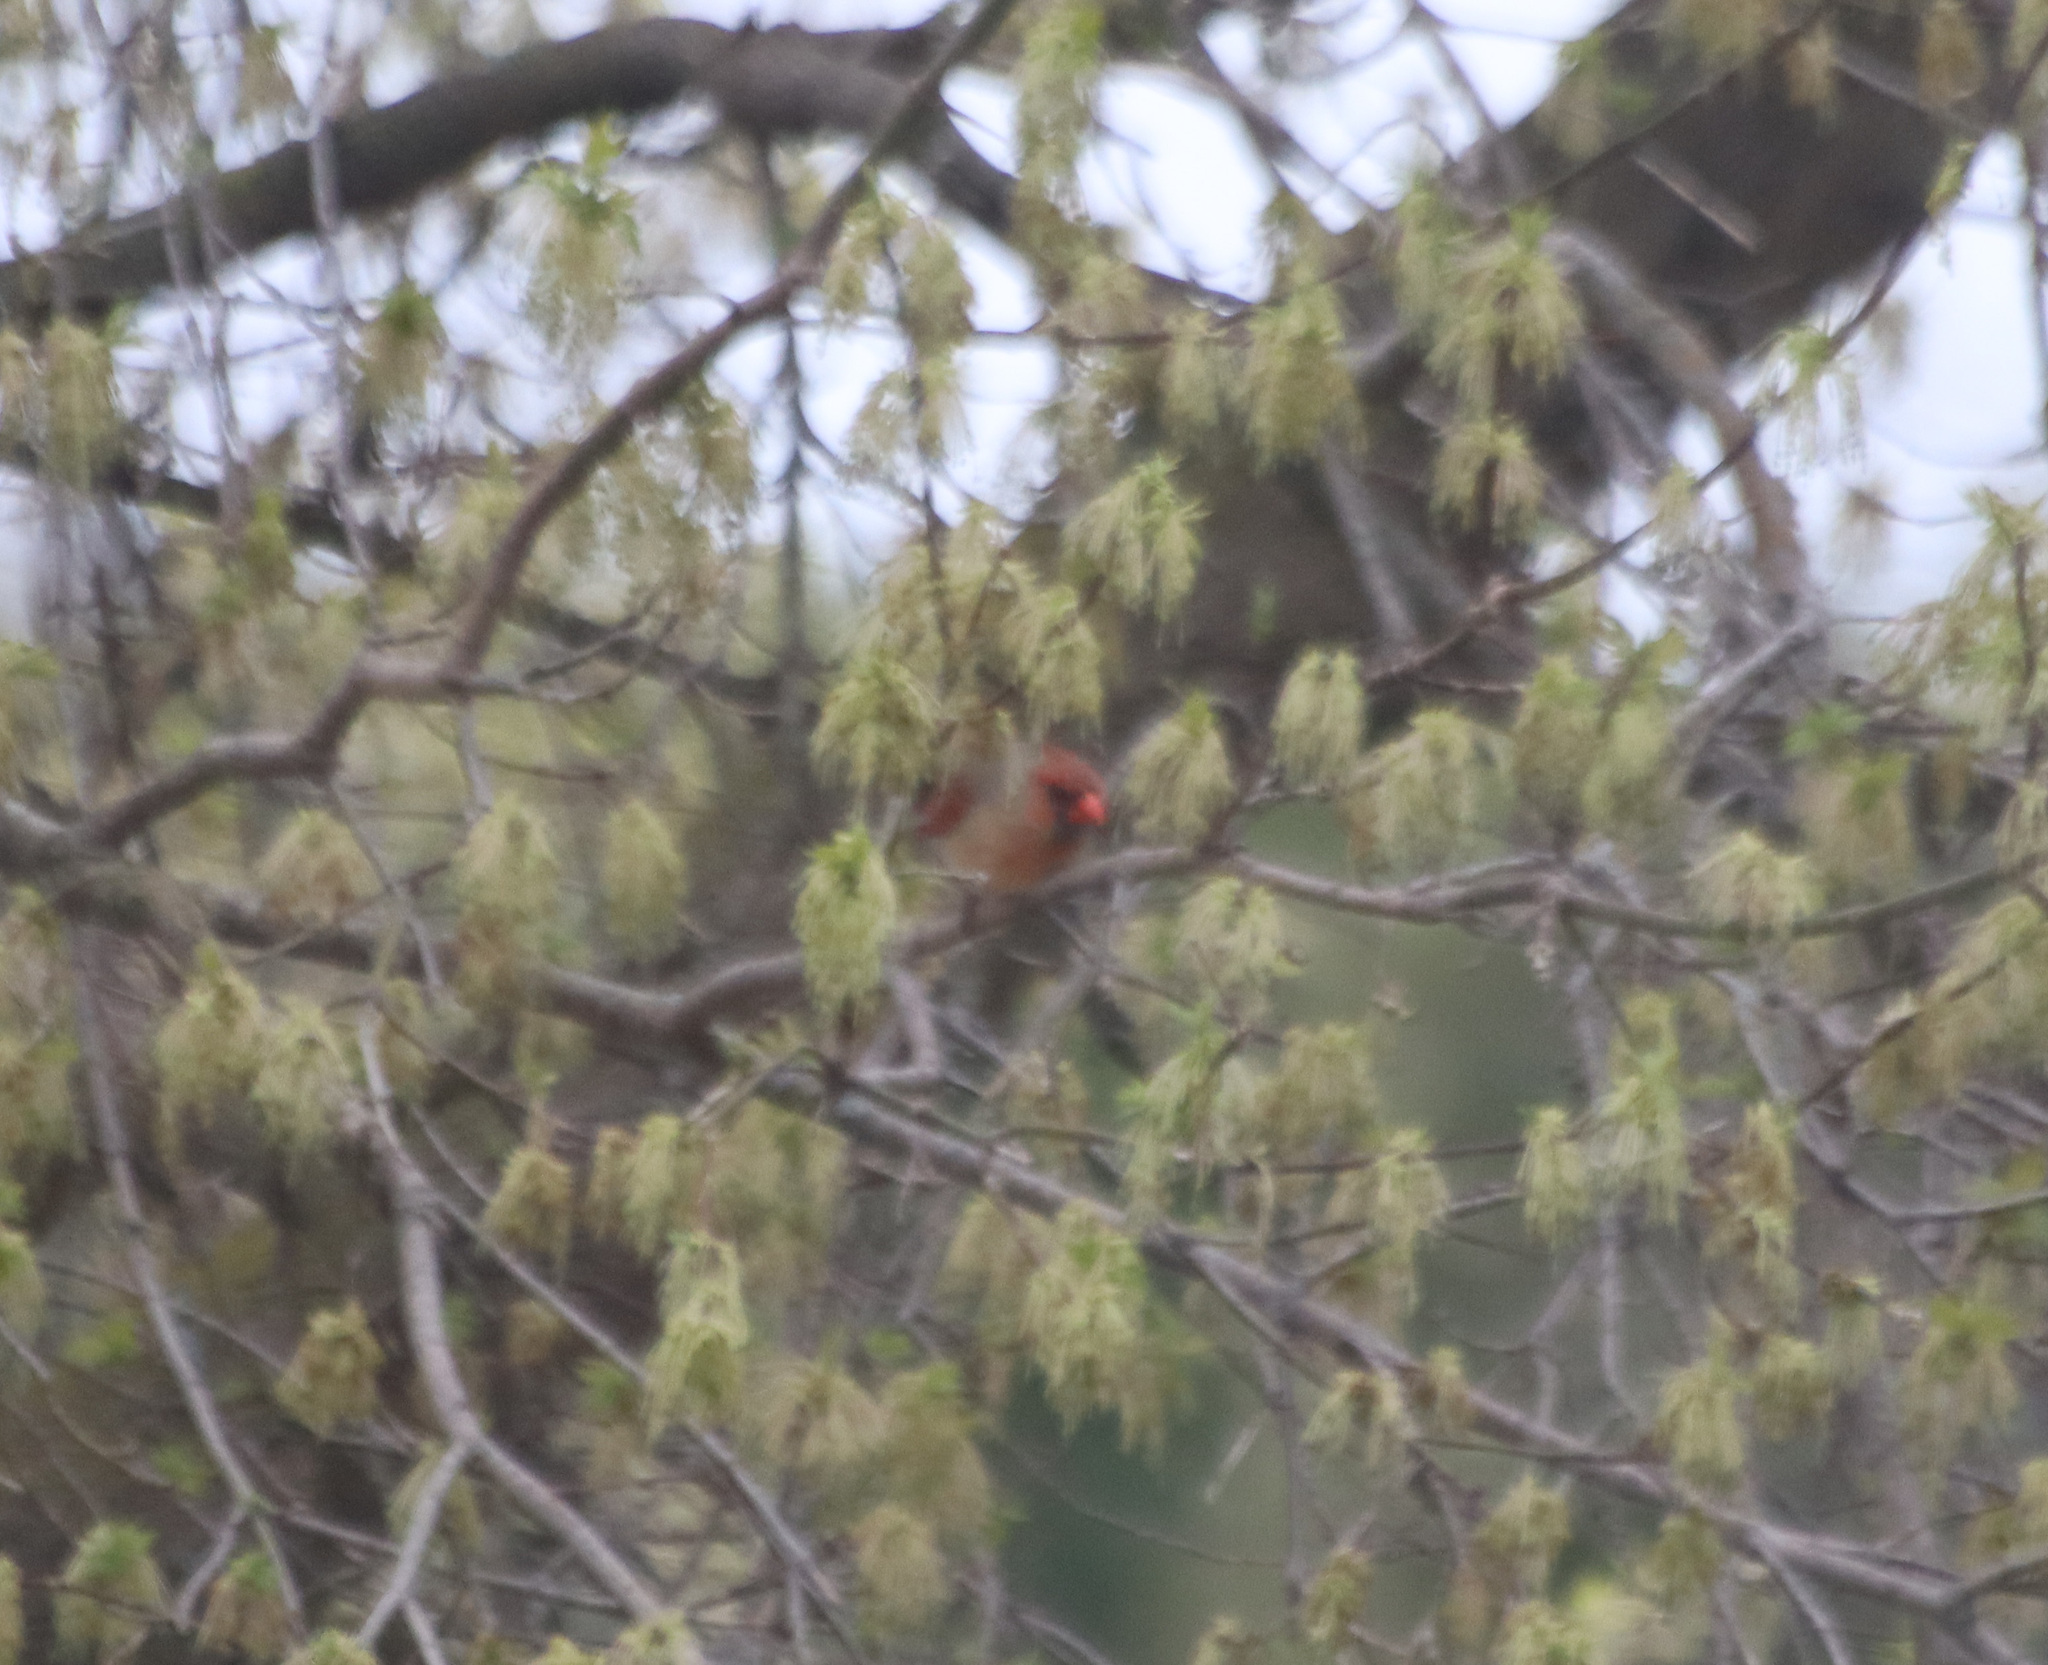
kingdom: Animalia
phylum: Chordata
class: Aves
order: Passeriformes
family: Cardinalidae
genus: Cardinalis
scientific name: Cardinalis cardinalis
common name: Northern cardinal
